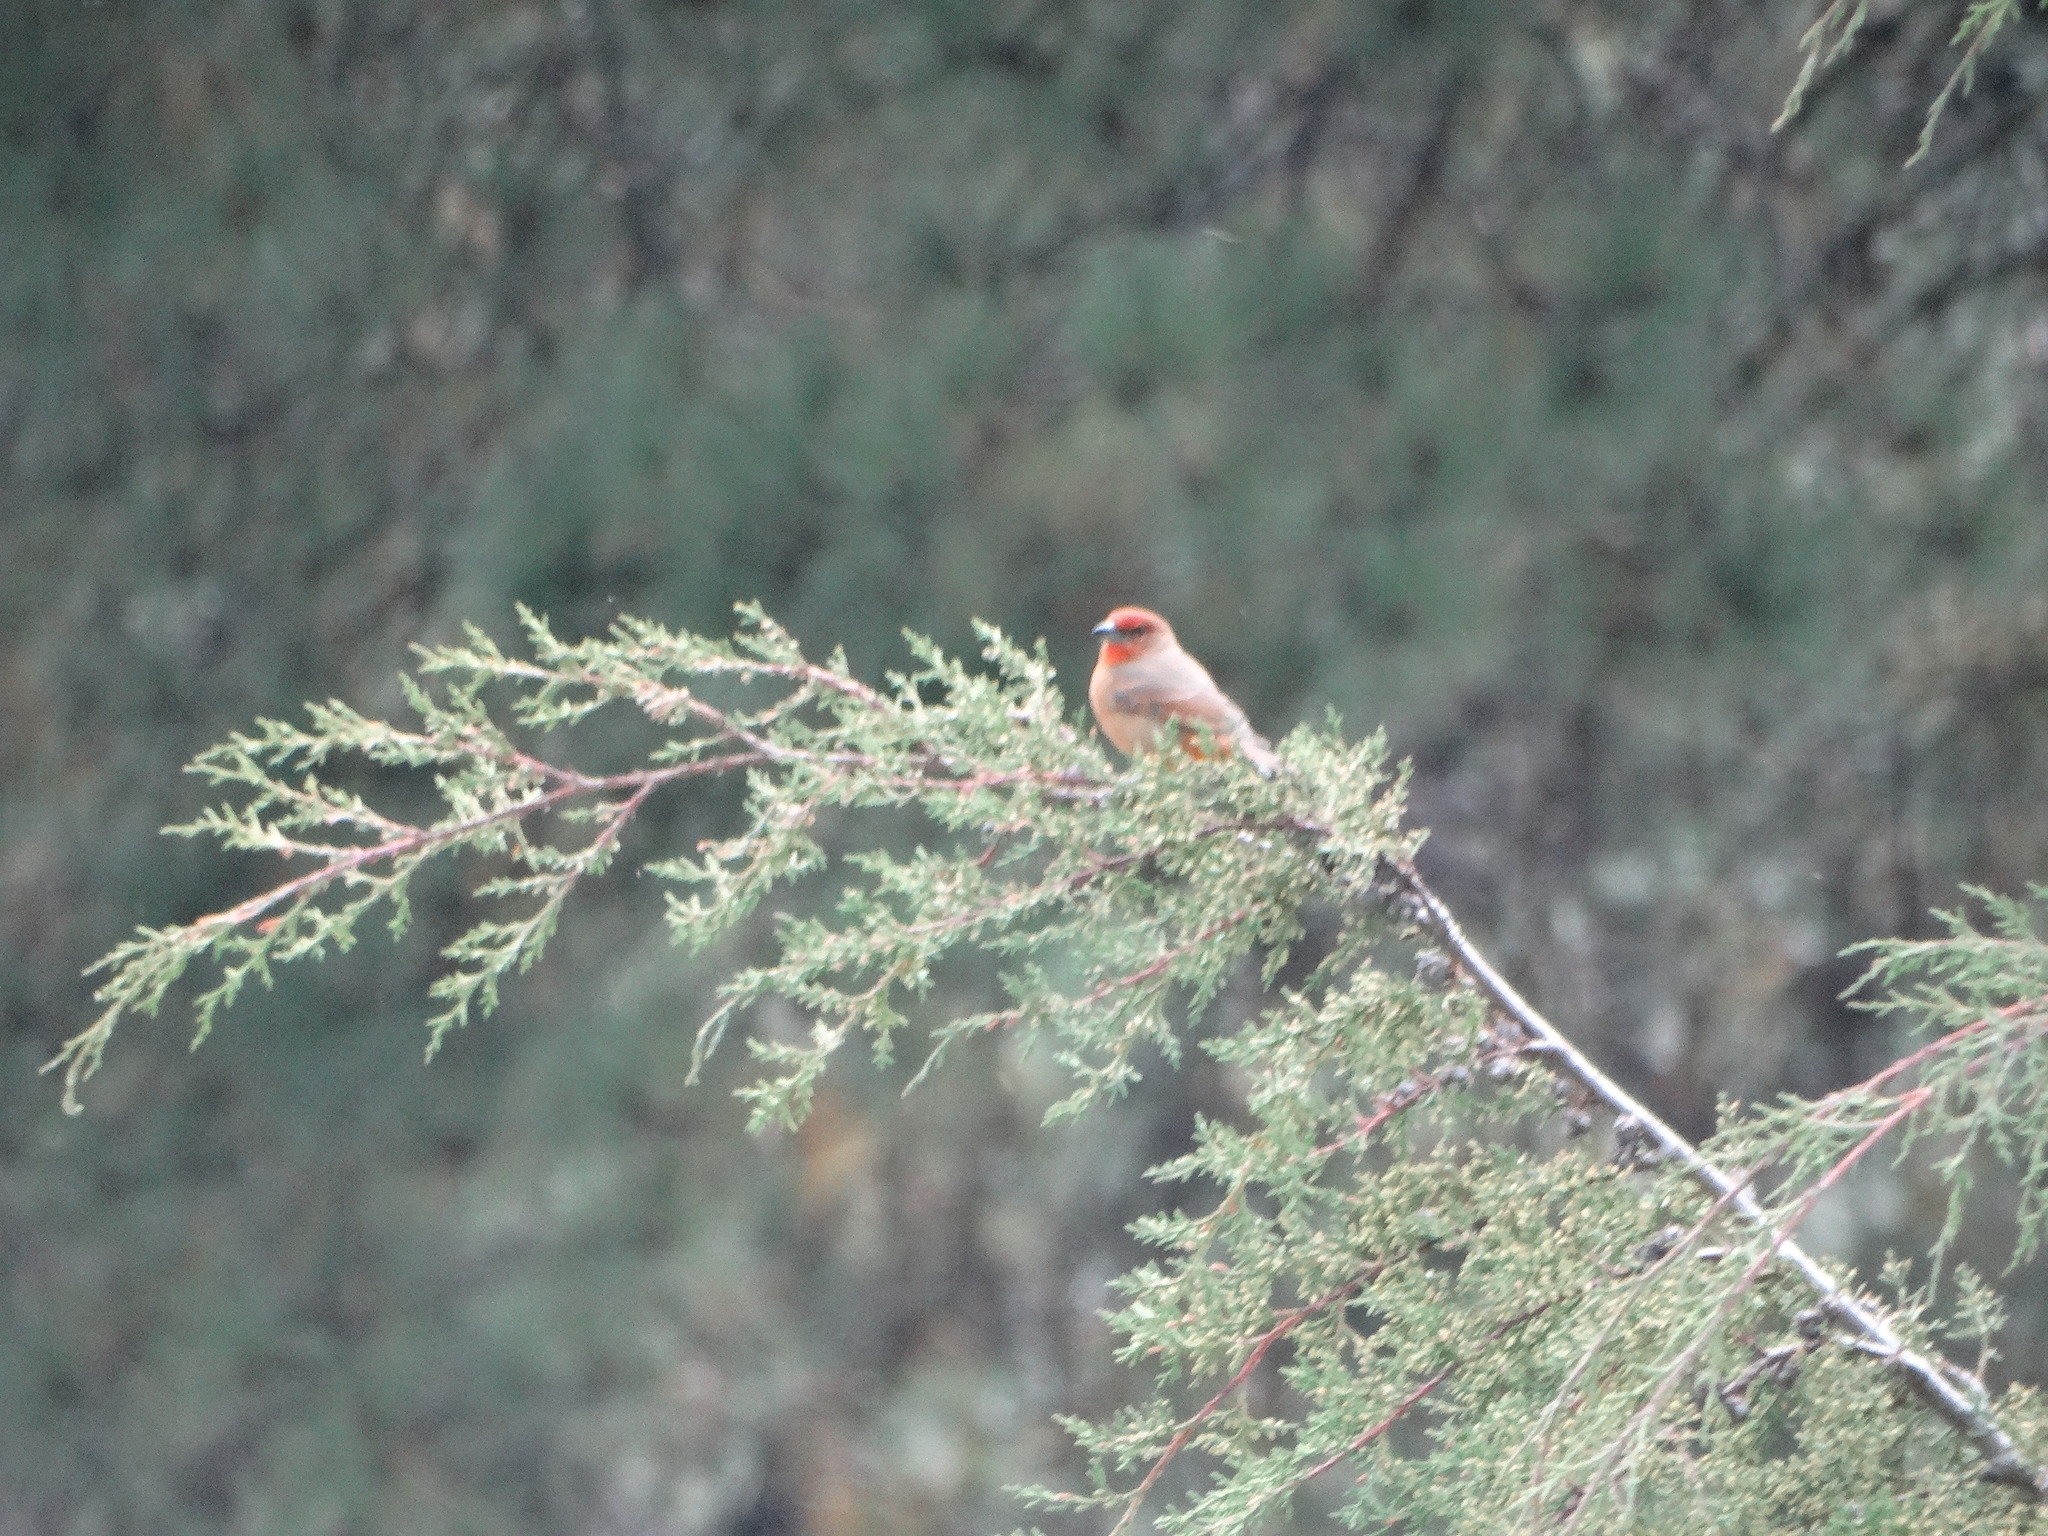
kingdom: Animalia
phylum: Chordata
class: Aves
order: Passeriformes
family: Cardinalidae
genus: Piranga
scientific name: Piranga flava
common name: Red tanager
